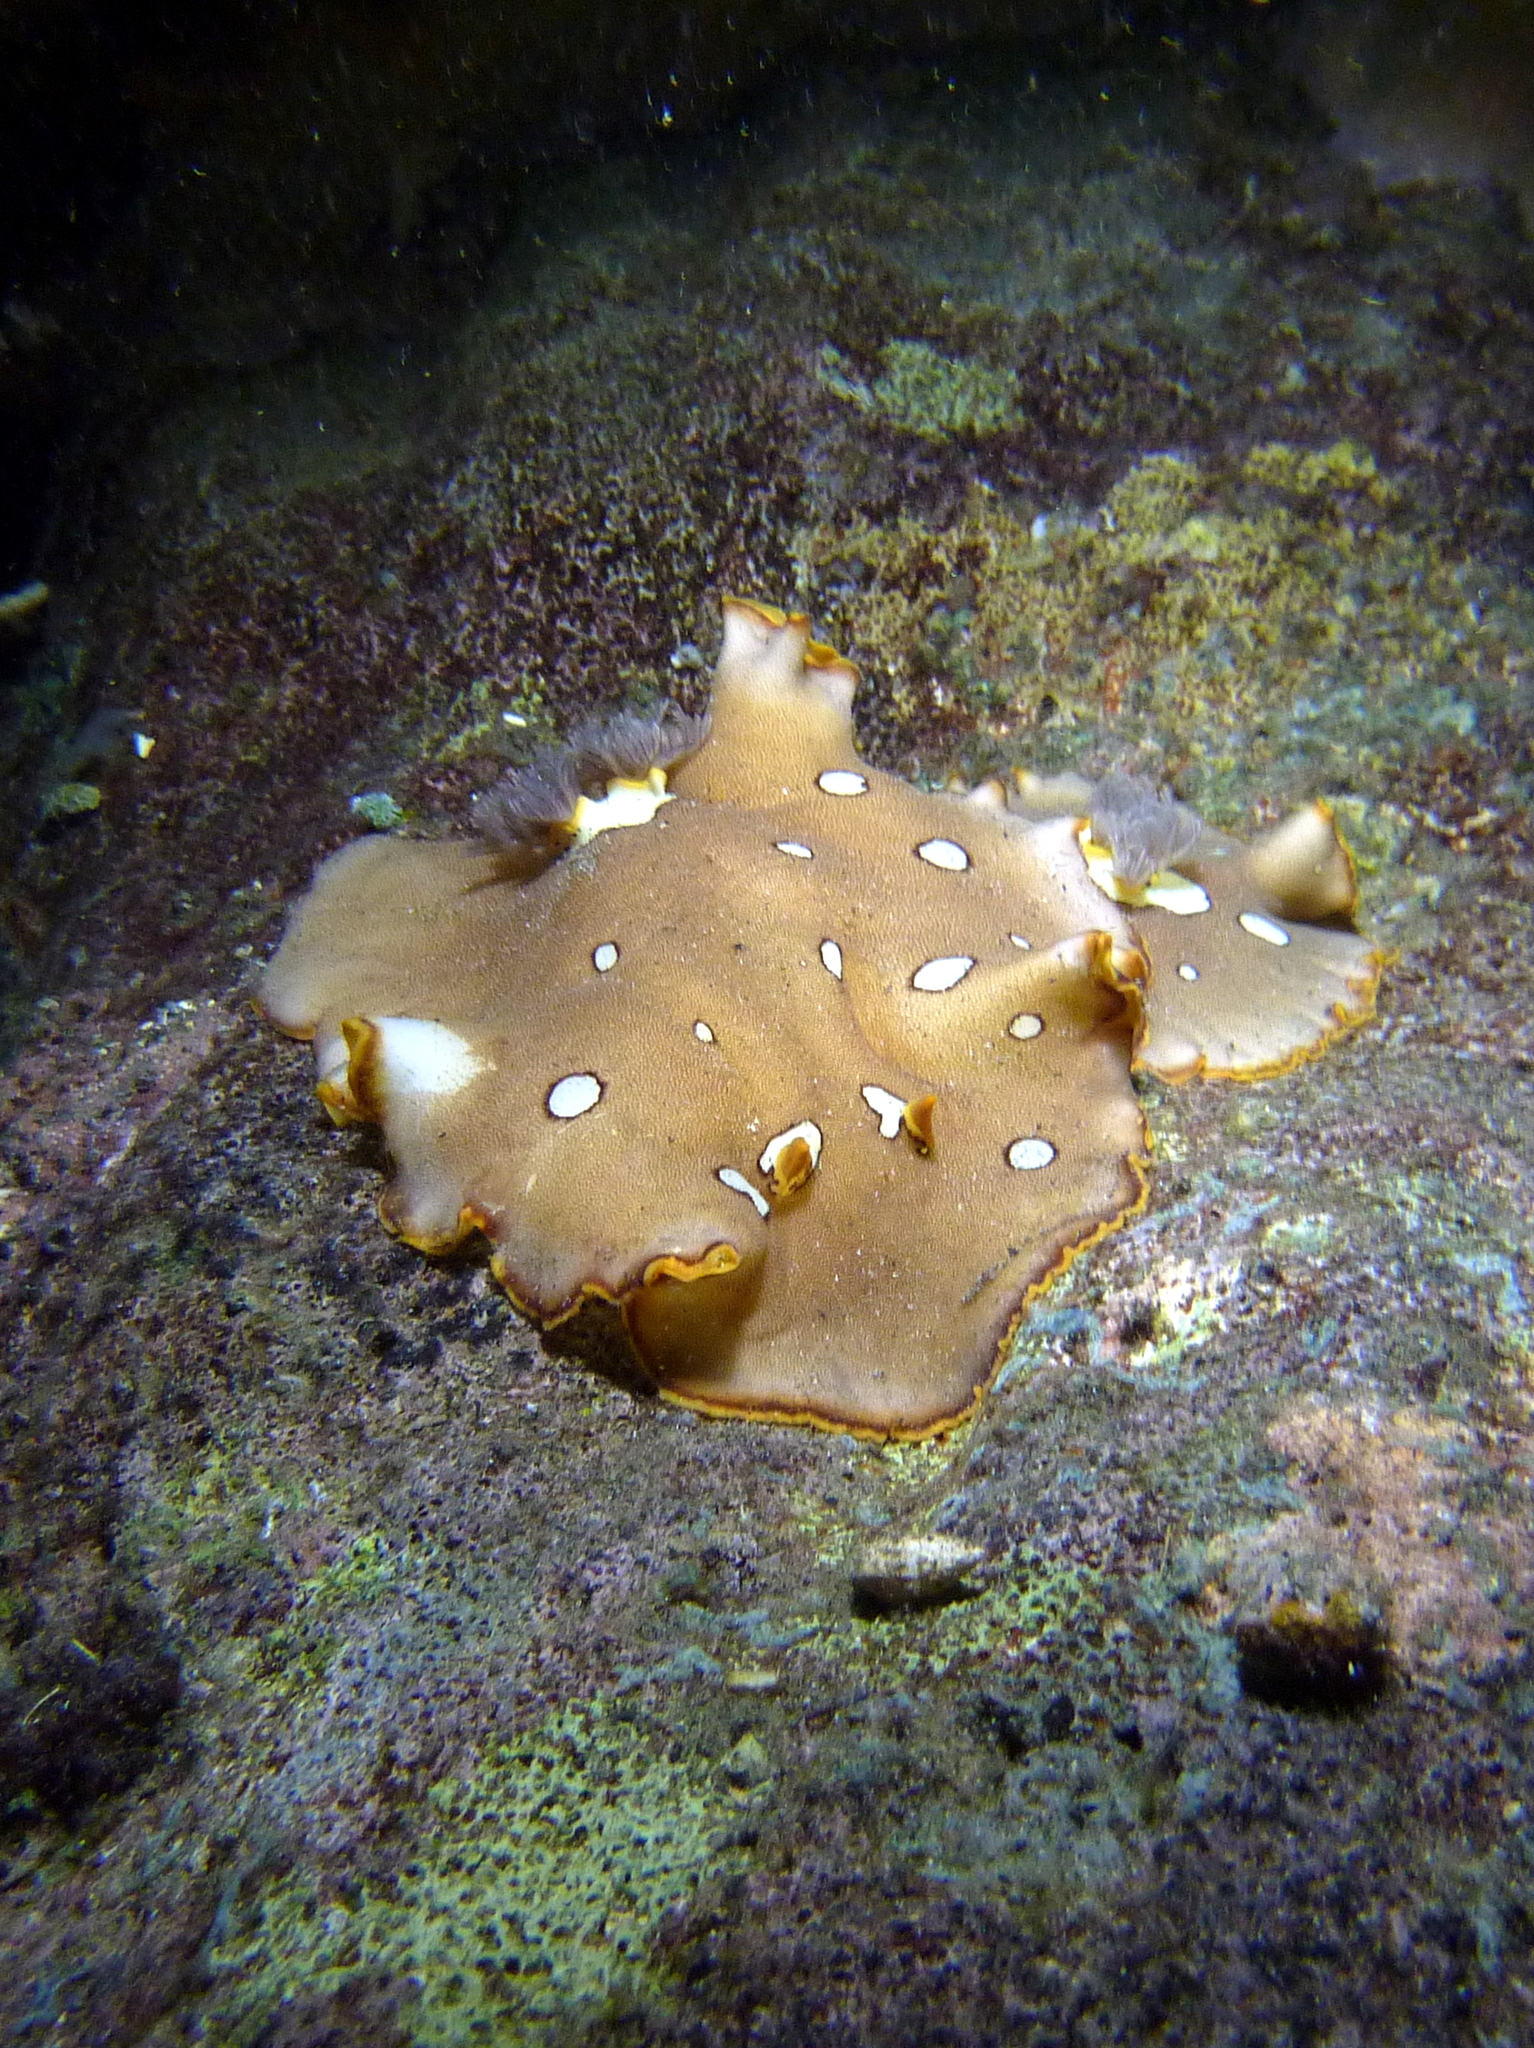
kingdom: Animalia
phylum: Mollusca
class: Gastropoda
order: Nudibranchia
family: Discodorididae
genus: Platydoris
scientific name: Platydoris ocellata
